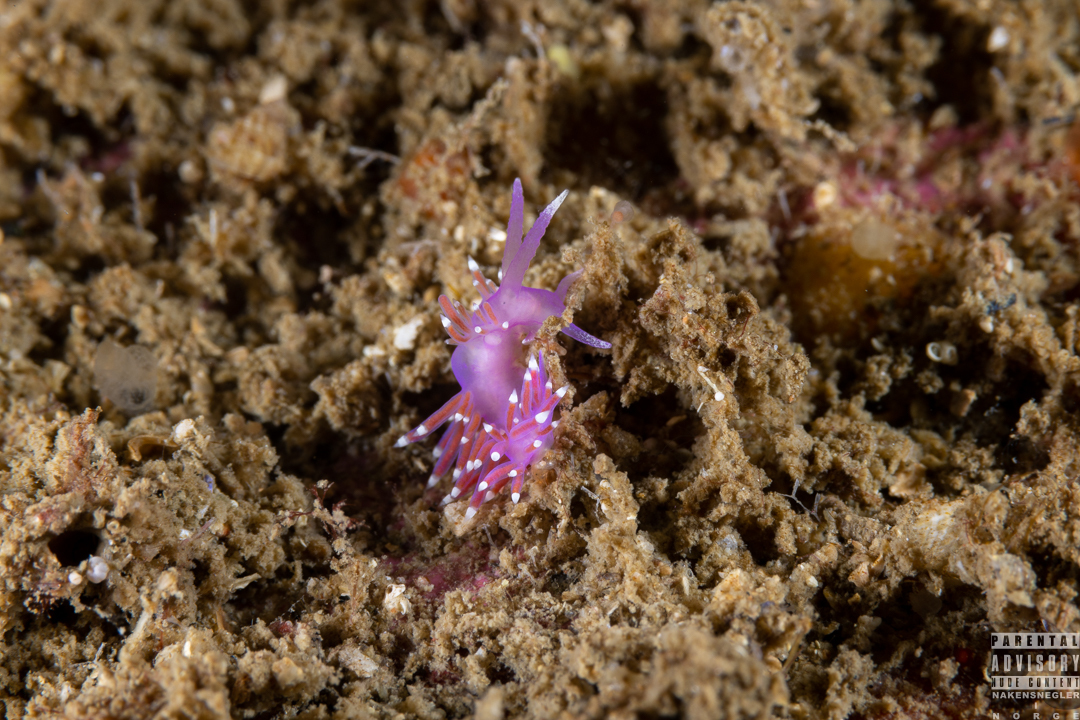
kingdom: Animalia
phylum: Mollusca
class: Gastropoda
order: Nudibranchia
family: Flabellinidae
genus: Edmundsella
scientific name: Edmundsella pedata
